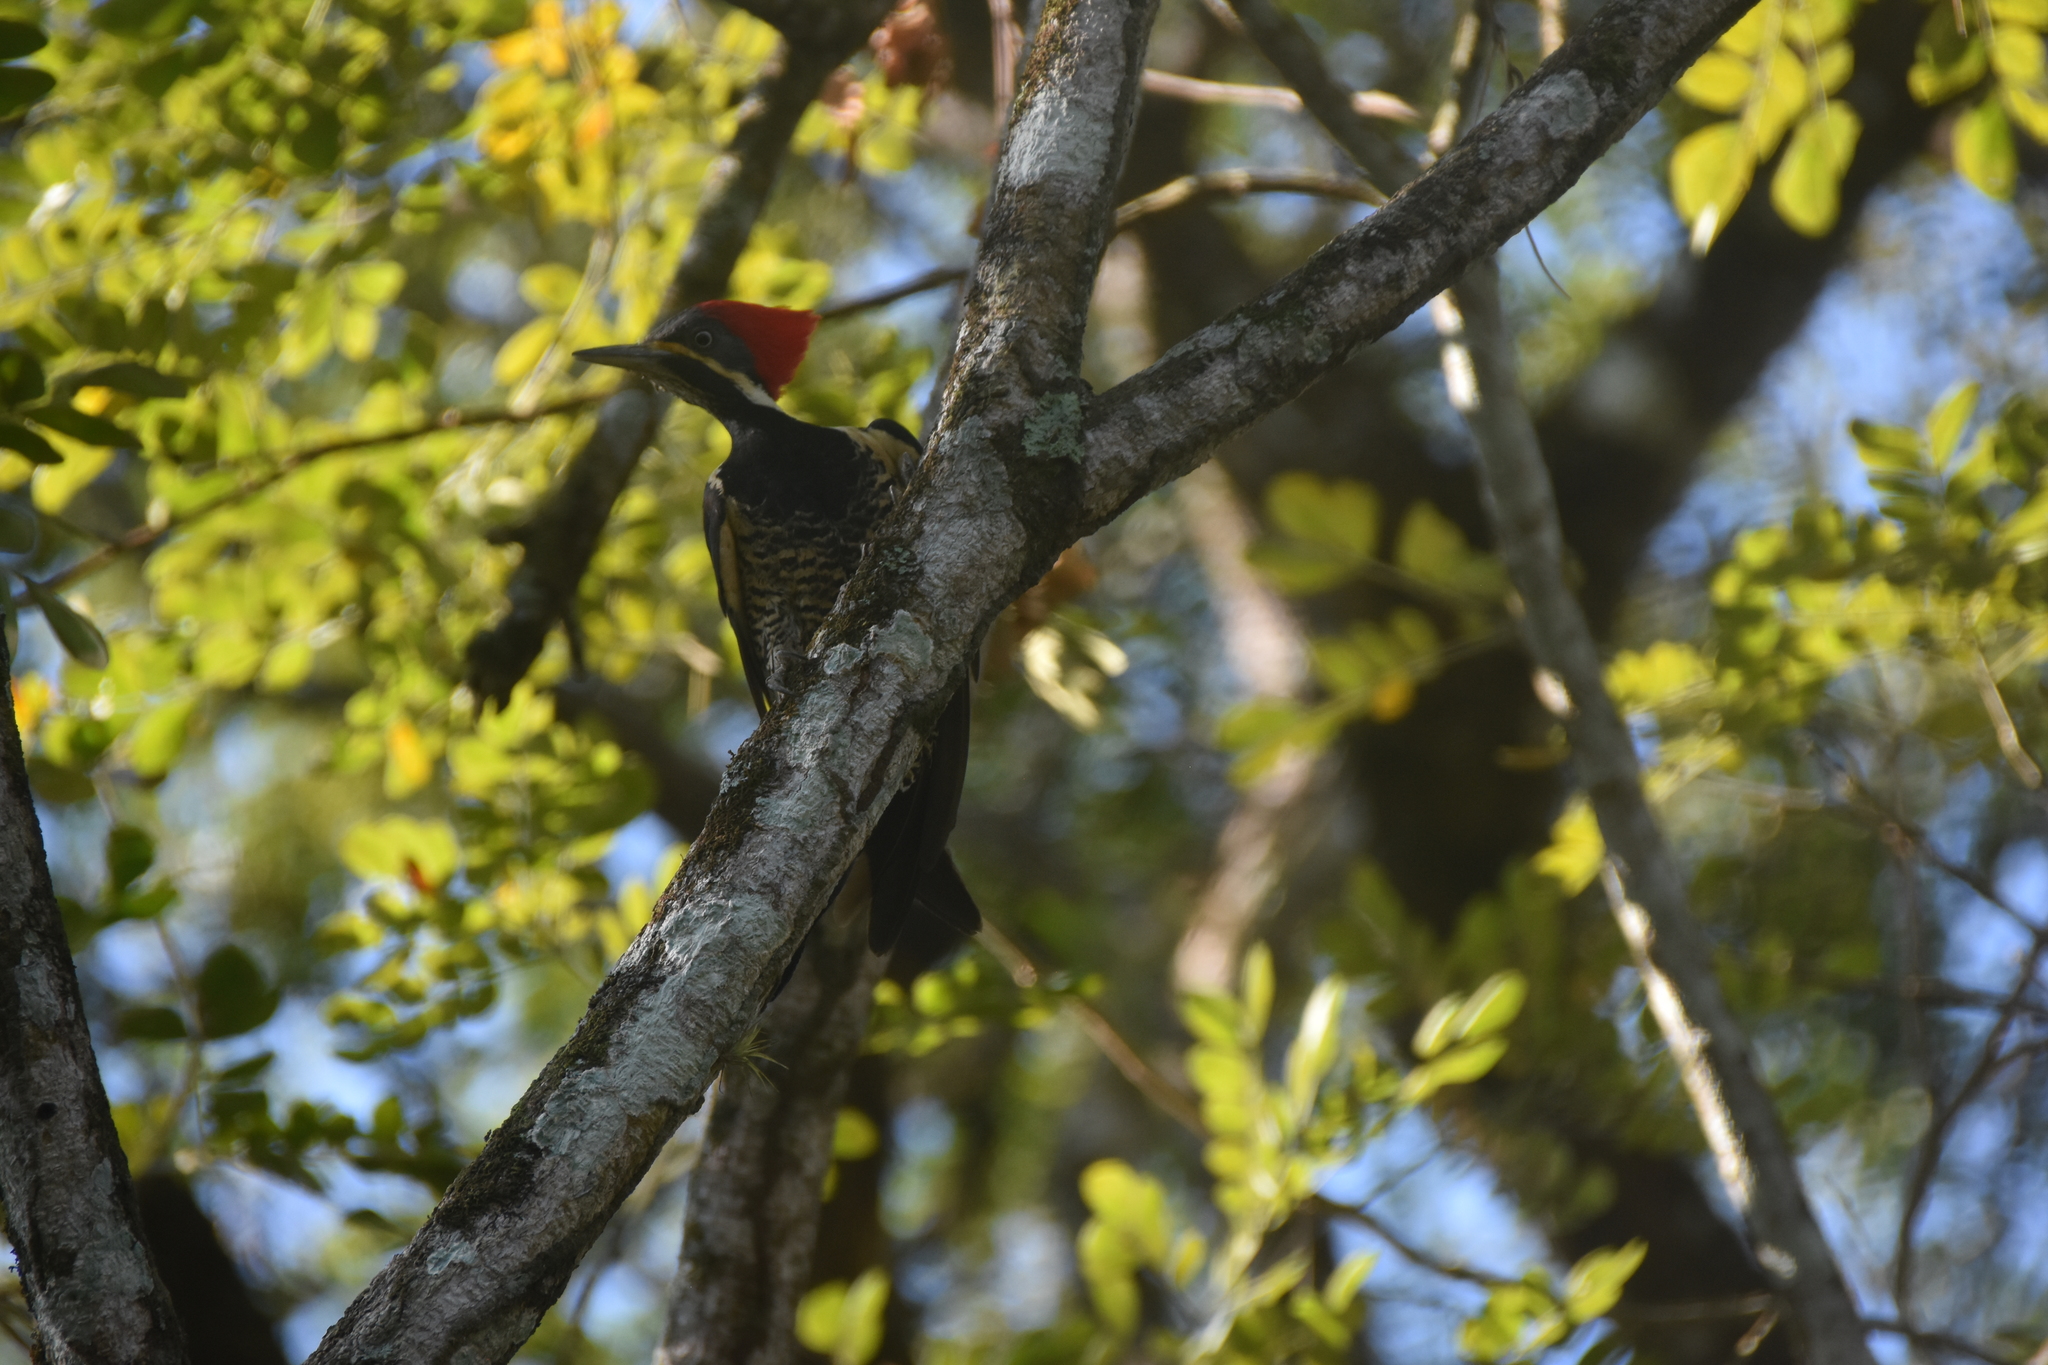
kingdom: Animalia
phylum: Chordata
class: Aves
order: Piciformes
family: Picidae
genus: Dryocopus
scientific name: Dryocopus lineatus
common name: Lineated woodpecker
